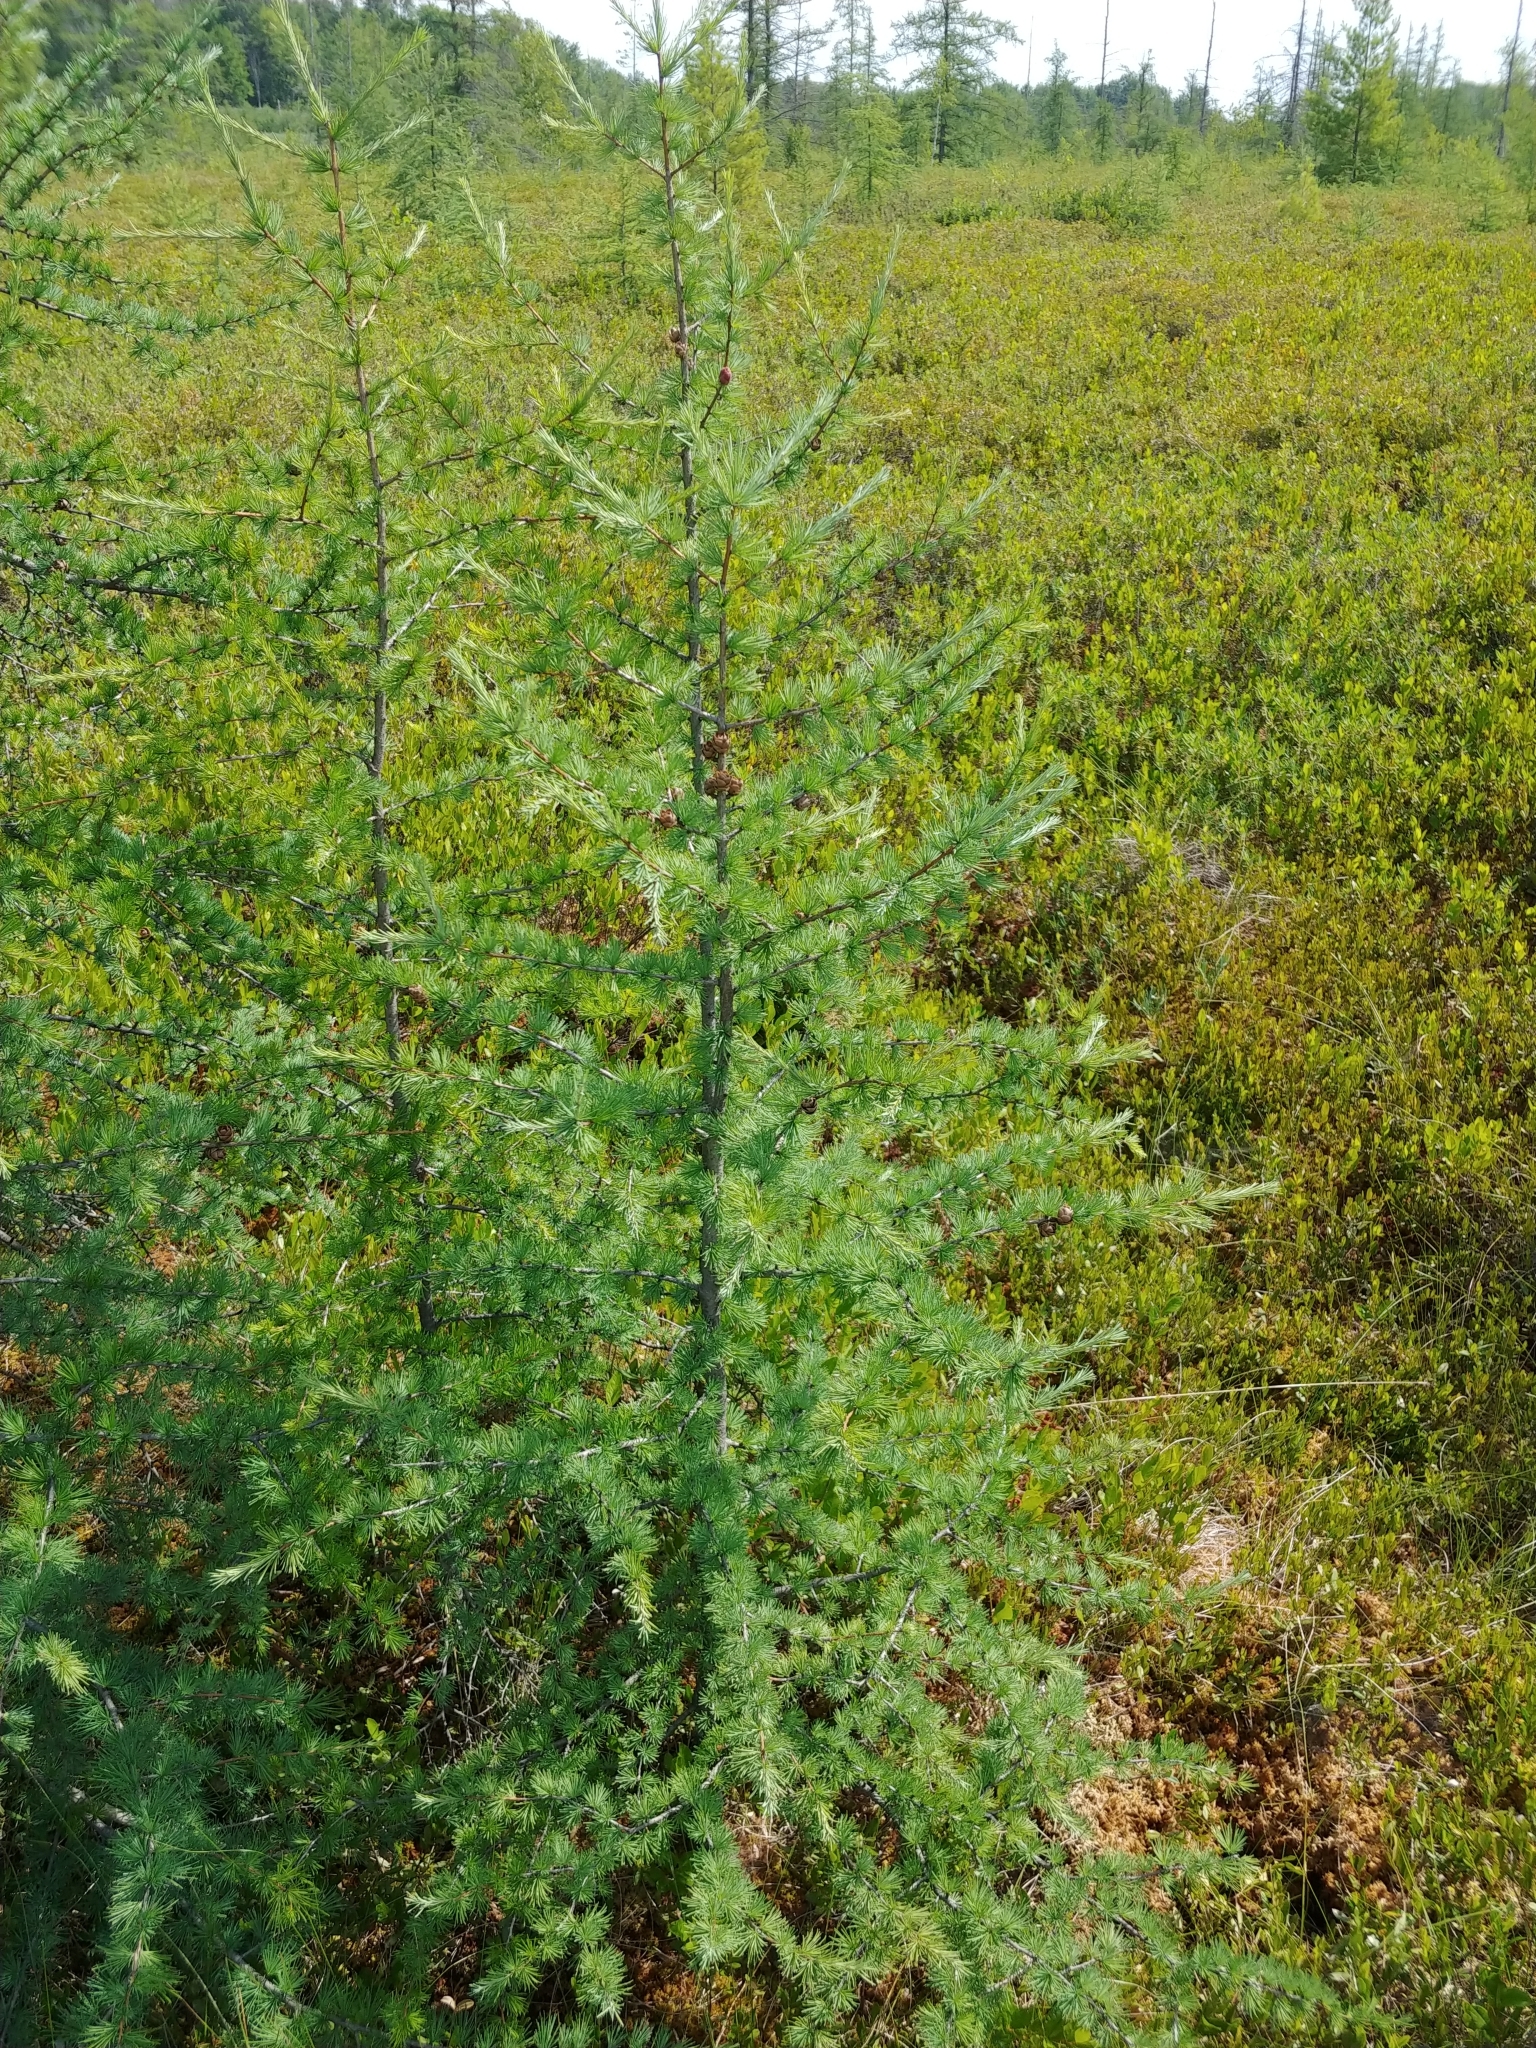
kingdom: Plantae
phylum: Tracheophyta
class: Pinopsida
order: Pinales
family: Pinaceae
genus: Larix
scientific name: Larix laricina
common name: American larch
